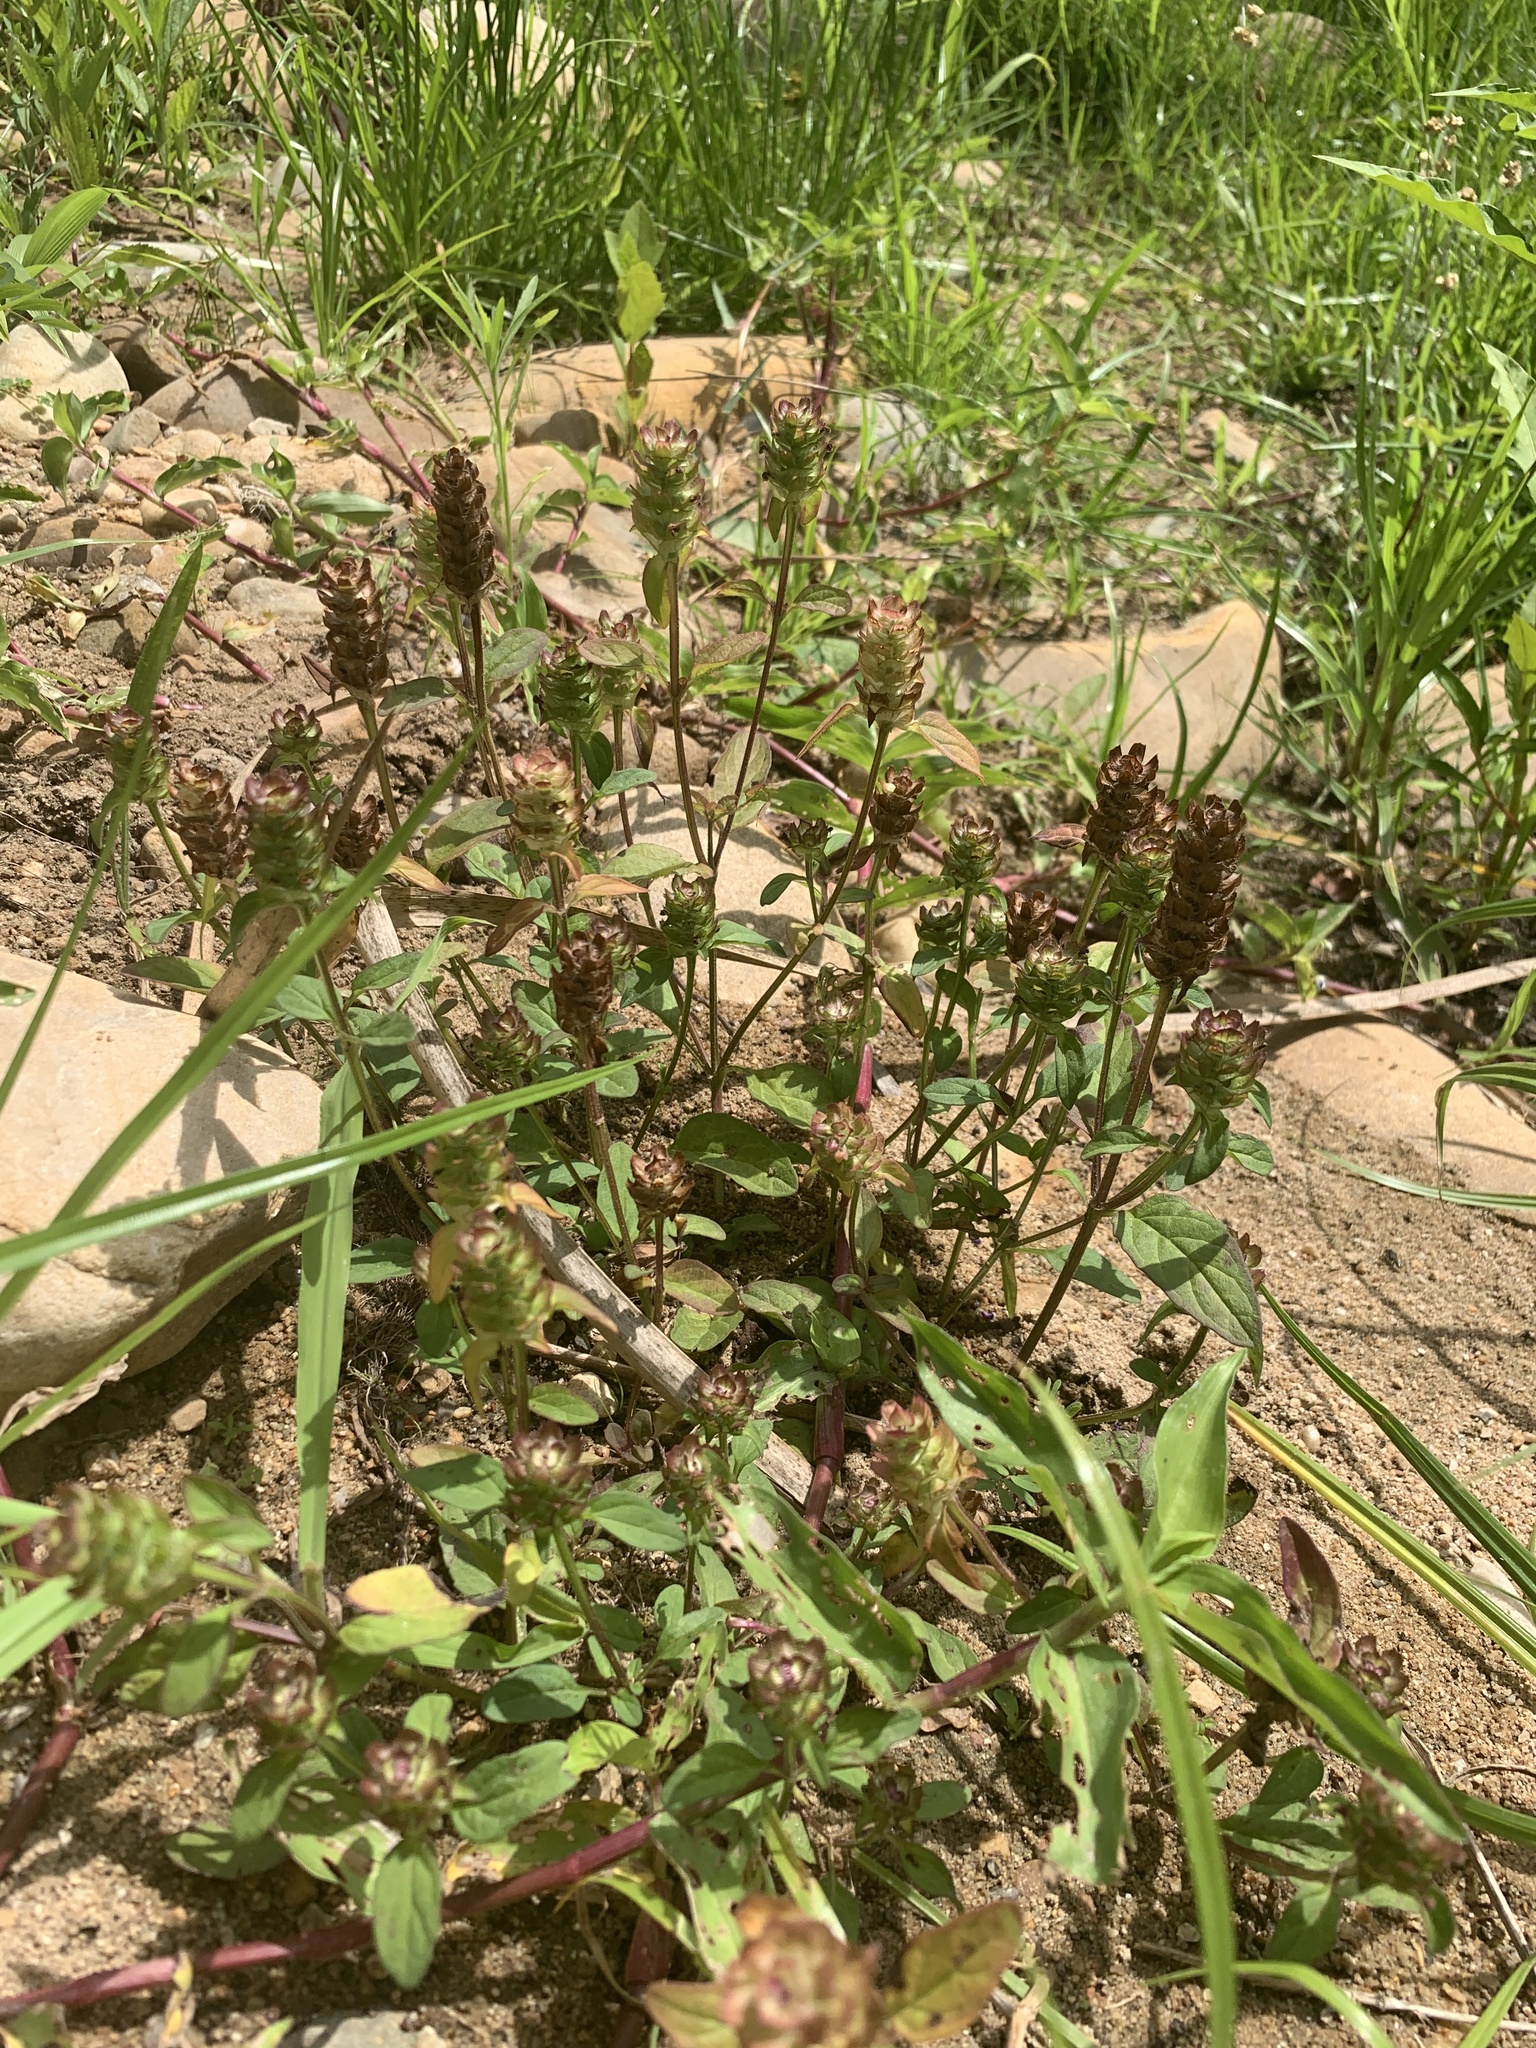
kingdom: Plantae
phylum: Tracheophyta
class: Magnoliopsida
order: Lamiales
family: Lamiaceae
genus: Prunella
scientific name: Prunella vulgaris
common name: Heal-all
